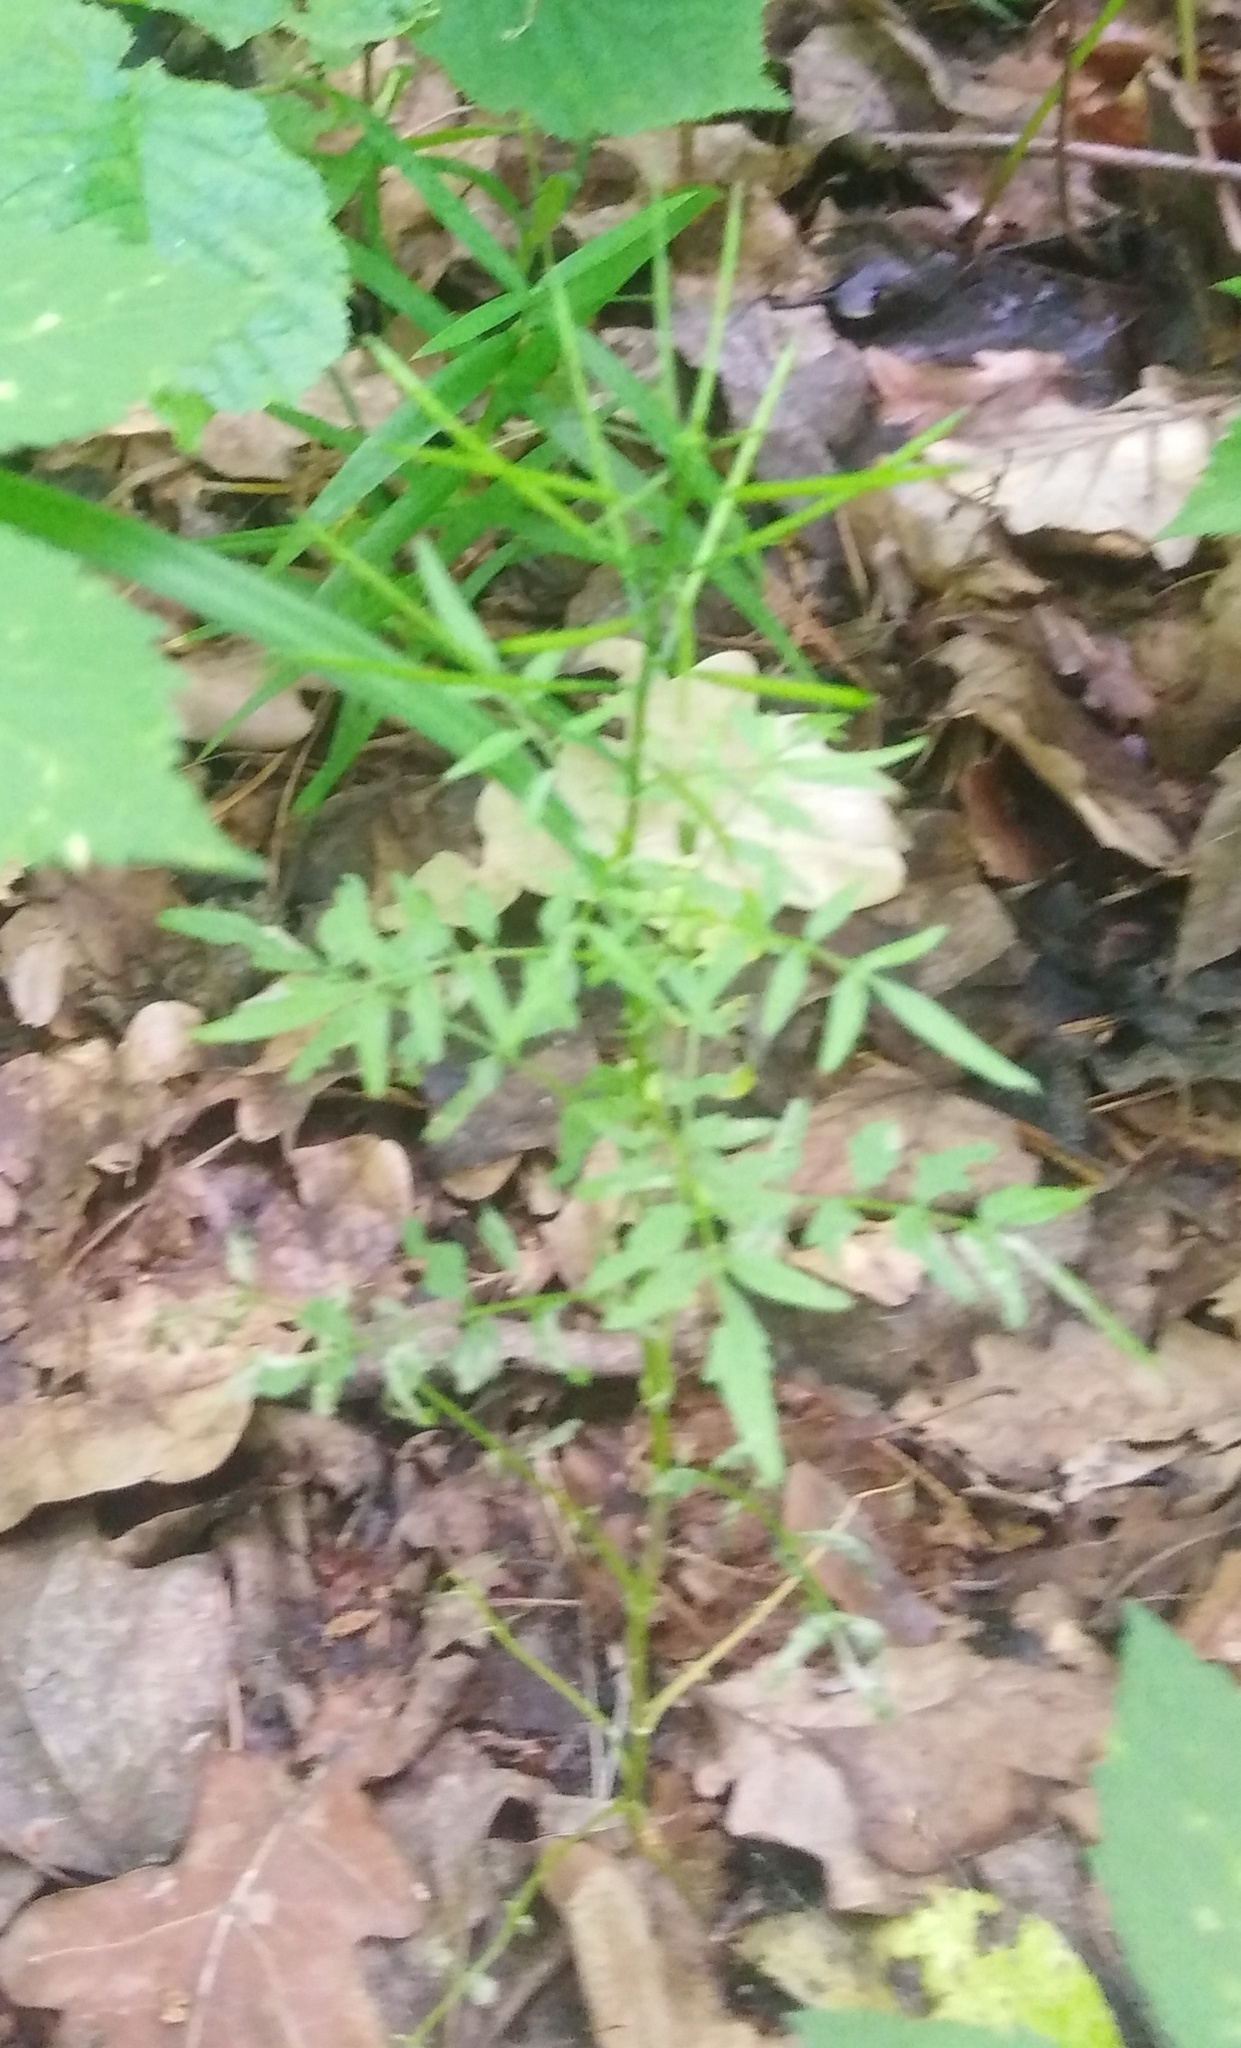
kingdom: Plantae
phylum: Tracheophyta
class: Magnoliopsida
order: Brassicales
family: Brassicaceae
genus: Cardamine
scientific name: Cardamine impatiens
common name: Narrow-leaved bitter-cress
